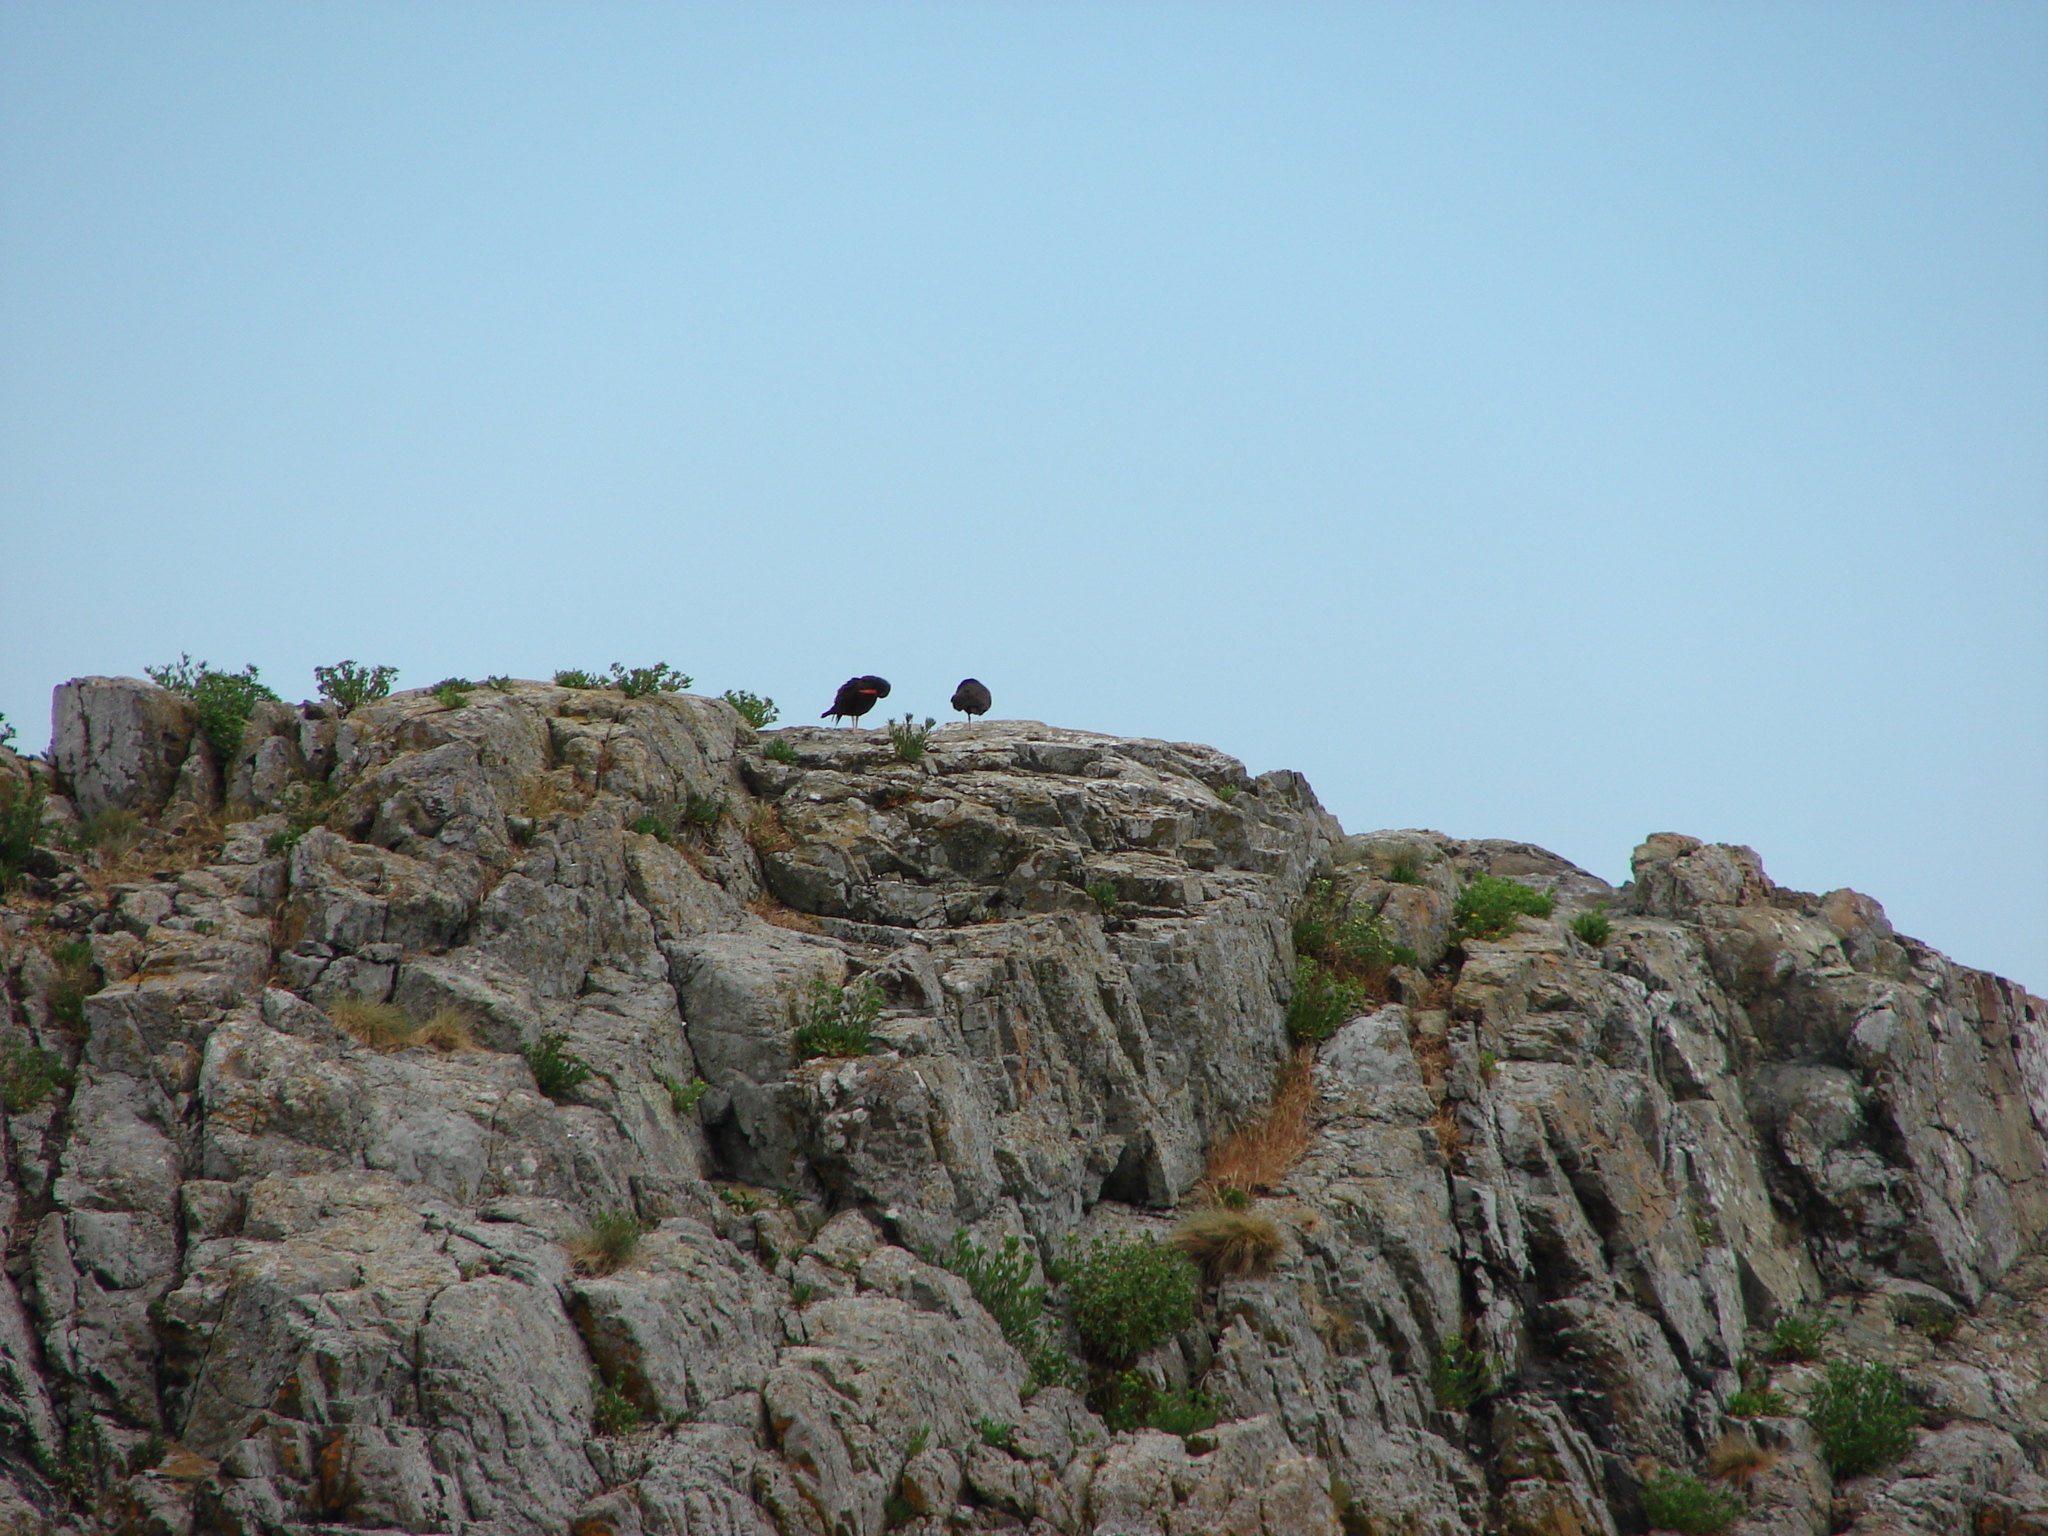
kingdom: Animalia
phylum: Chordata
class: Aves
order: Charadriiformes
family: Haematopodidae
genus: Haematopus
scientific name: Haematopus bachmani
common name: Black oystercatcher
